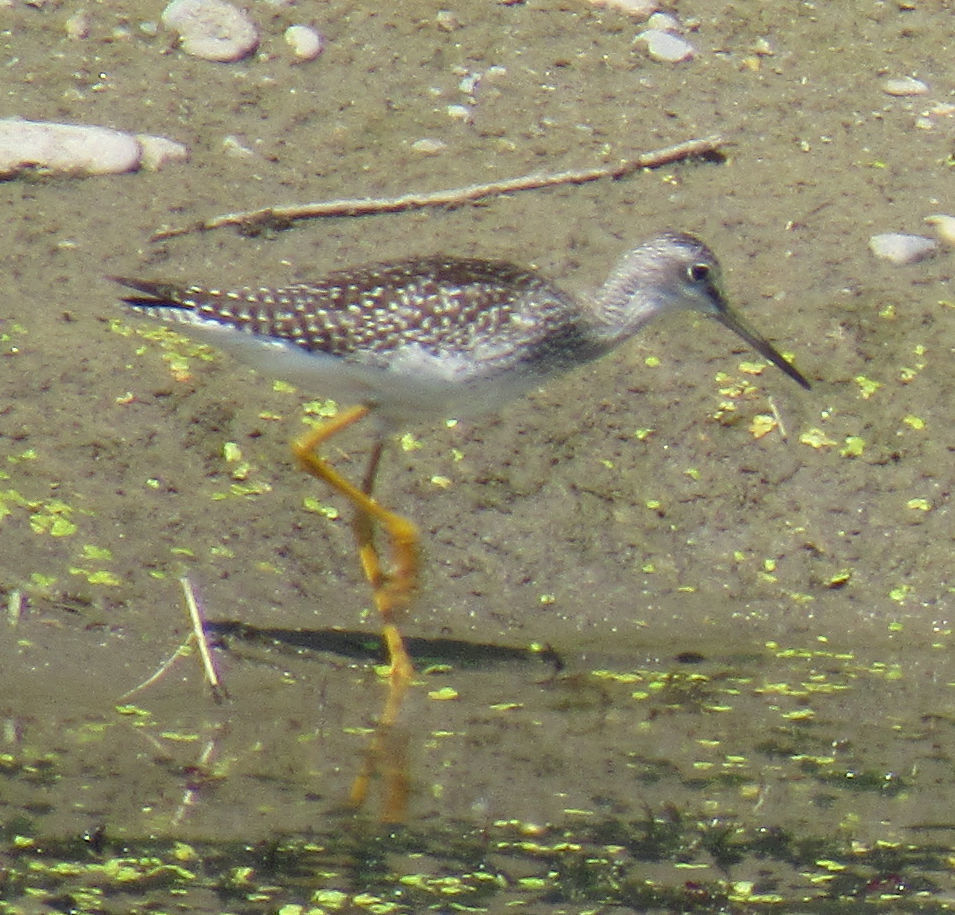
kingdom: Animalia
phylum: Chordata
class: Aves
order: Charadriiformes
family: Scolopacidae
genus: Tringa
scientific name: Tringa melanoleuca
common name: Greater yellowlegs
